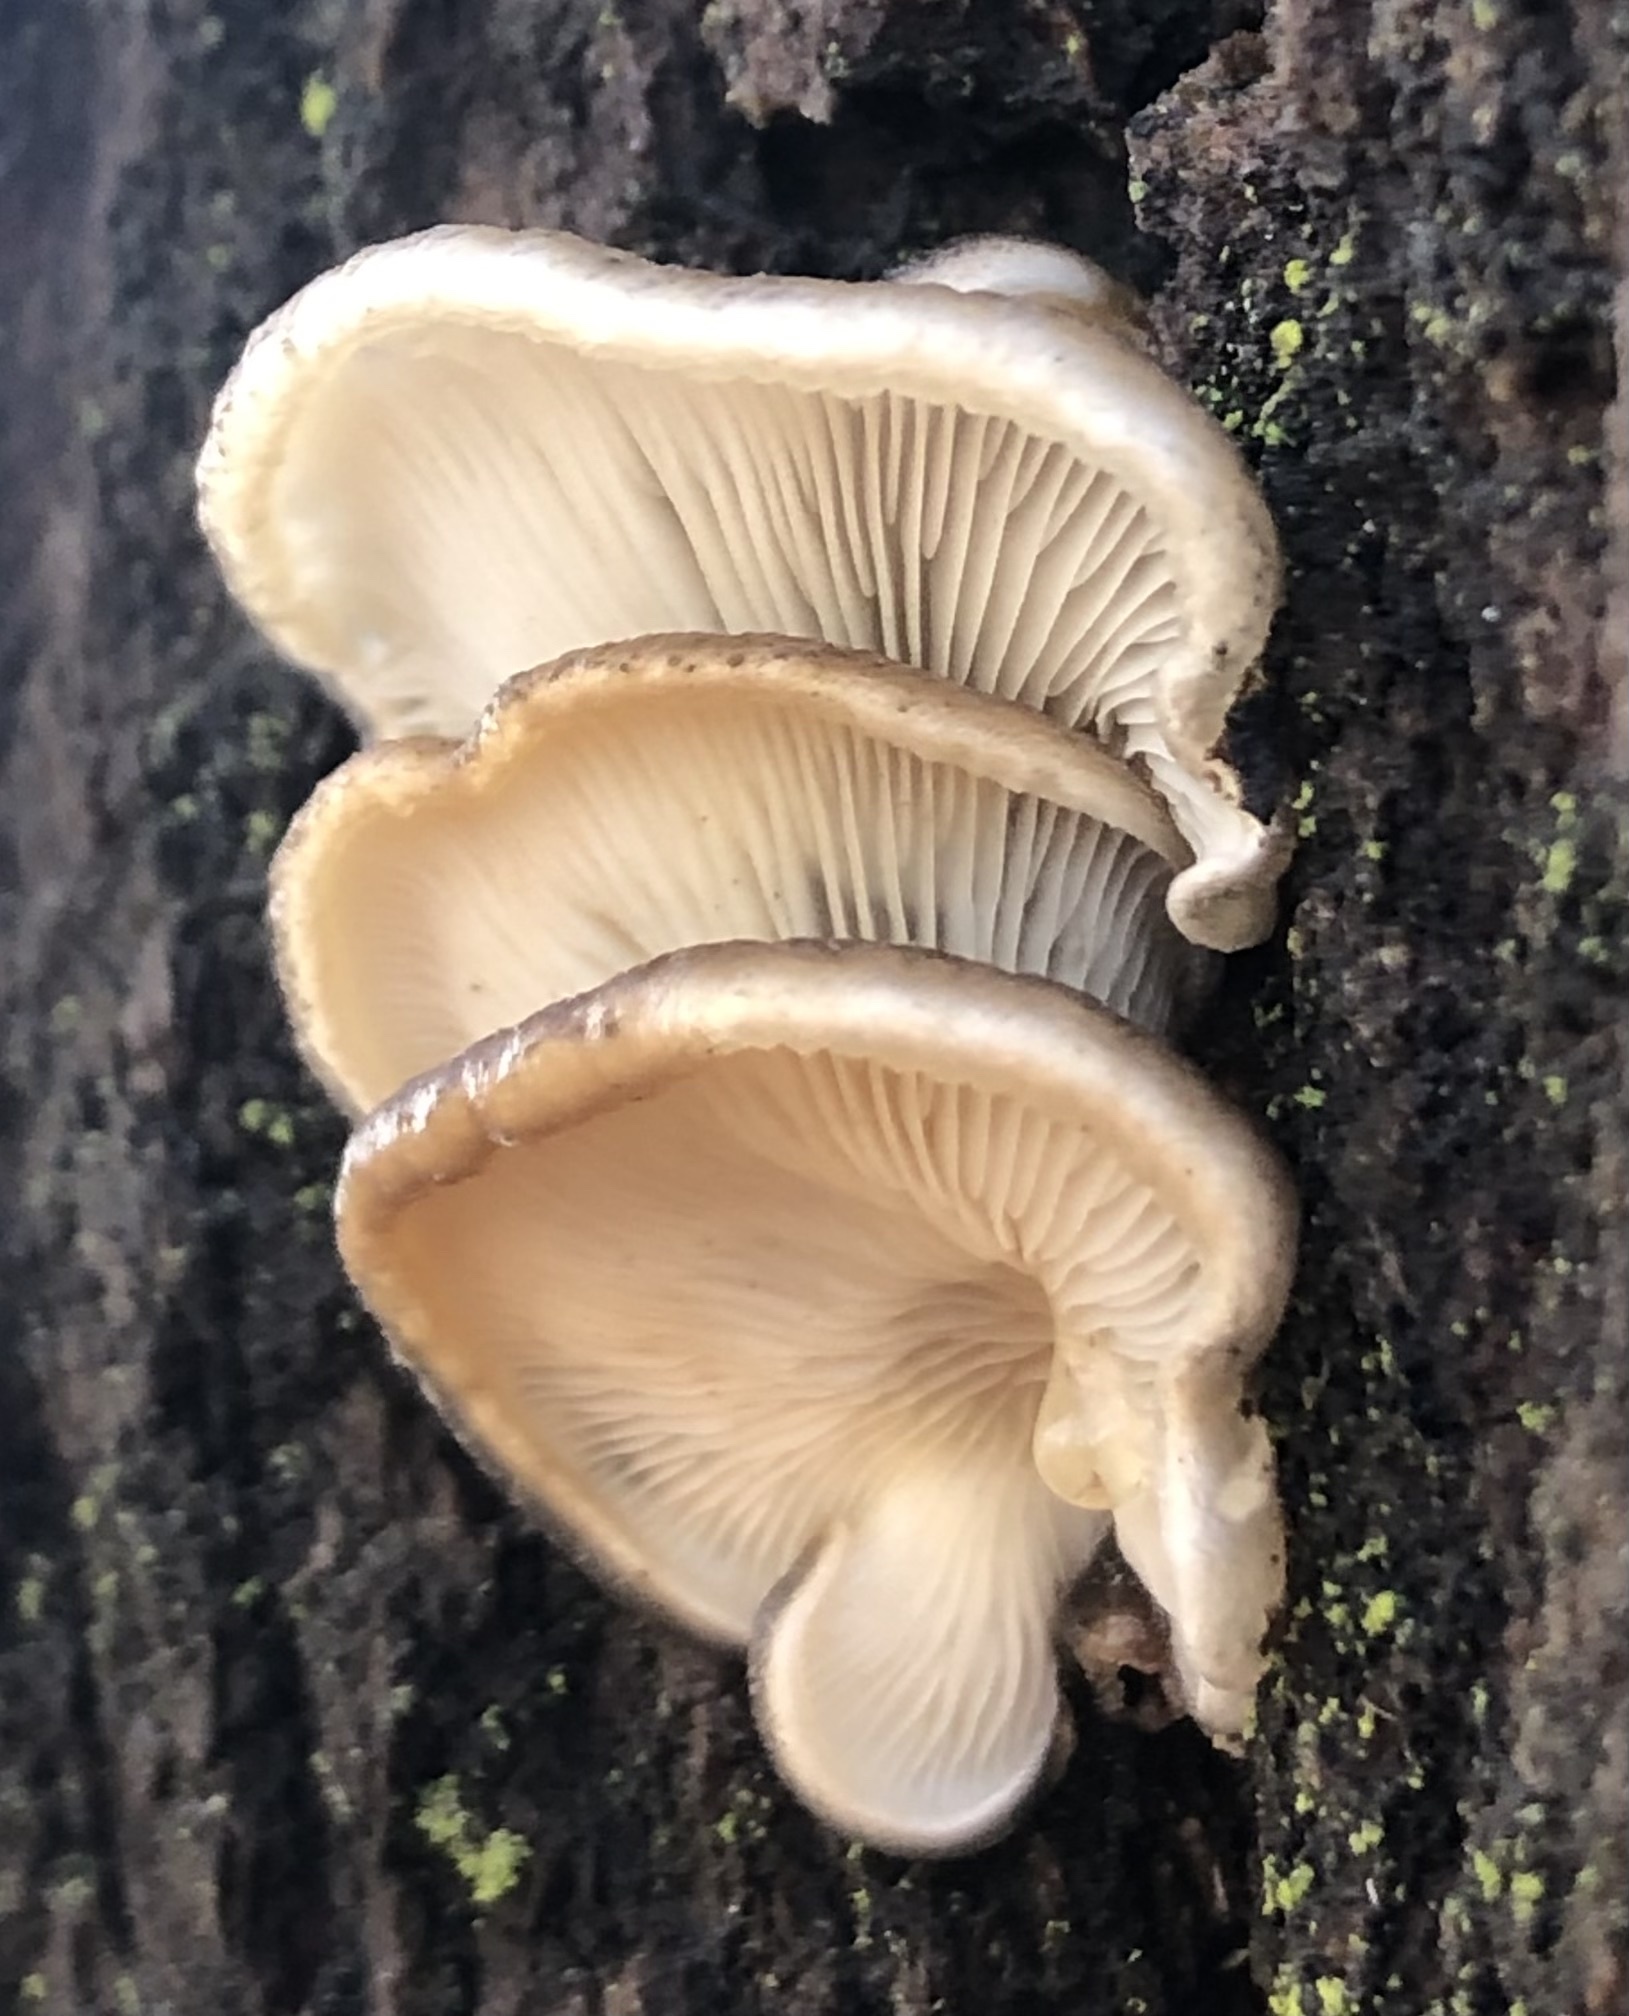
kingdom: Fungi
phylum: Basidiomycota
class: Agaricomycetes
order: Agaricales
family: Pleurotaceae
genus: Pleurotus
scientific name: Pleurotus ostreatus
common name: Oyster mushroom
